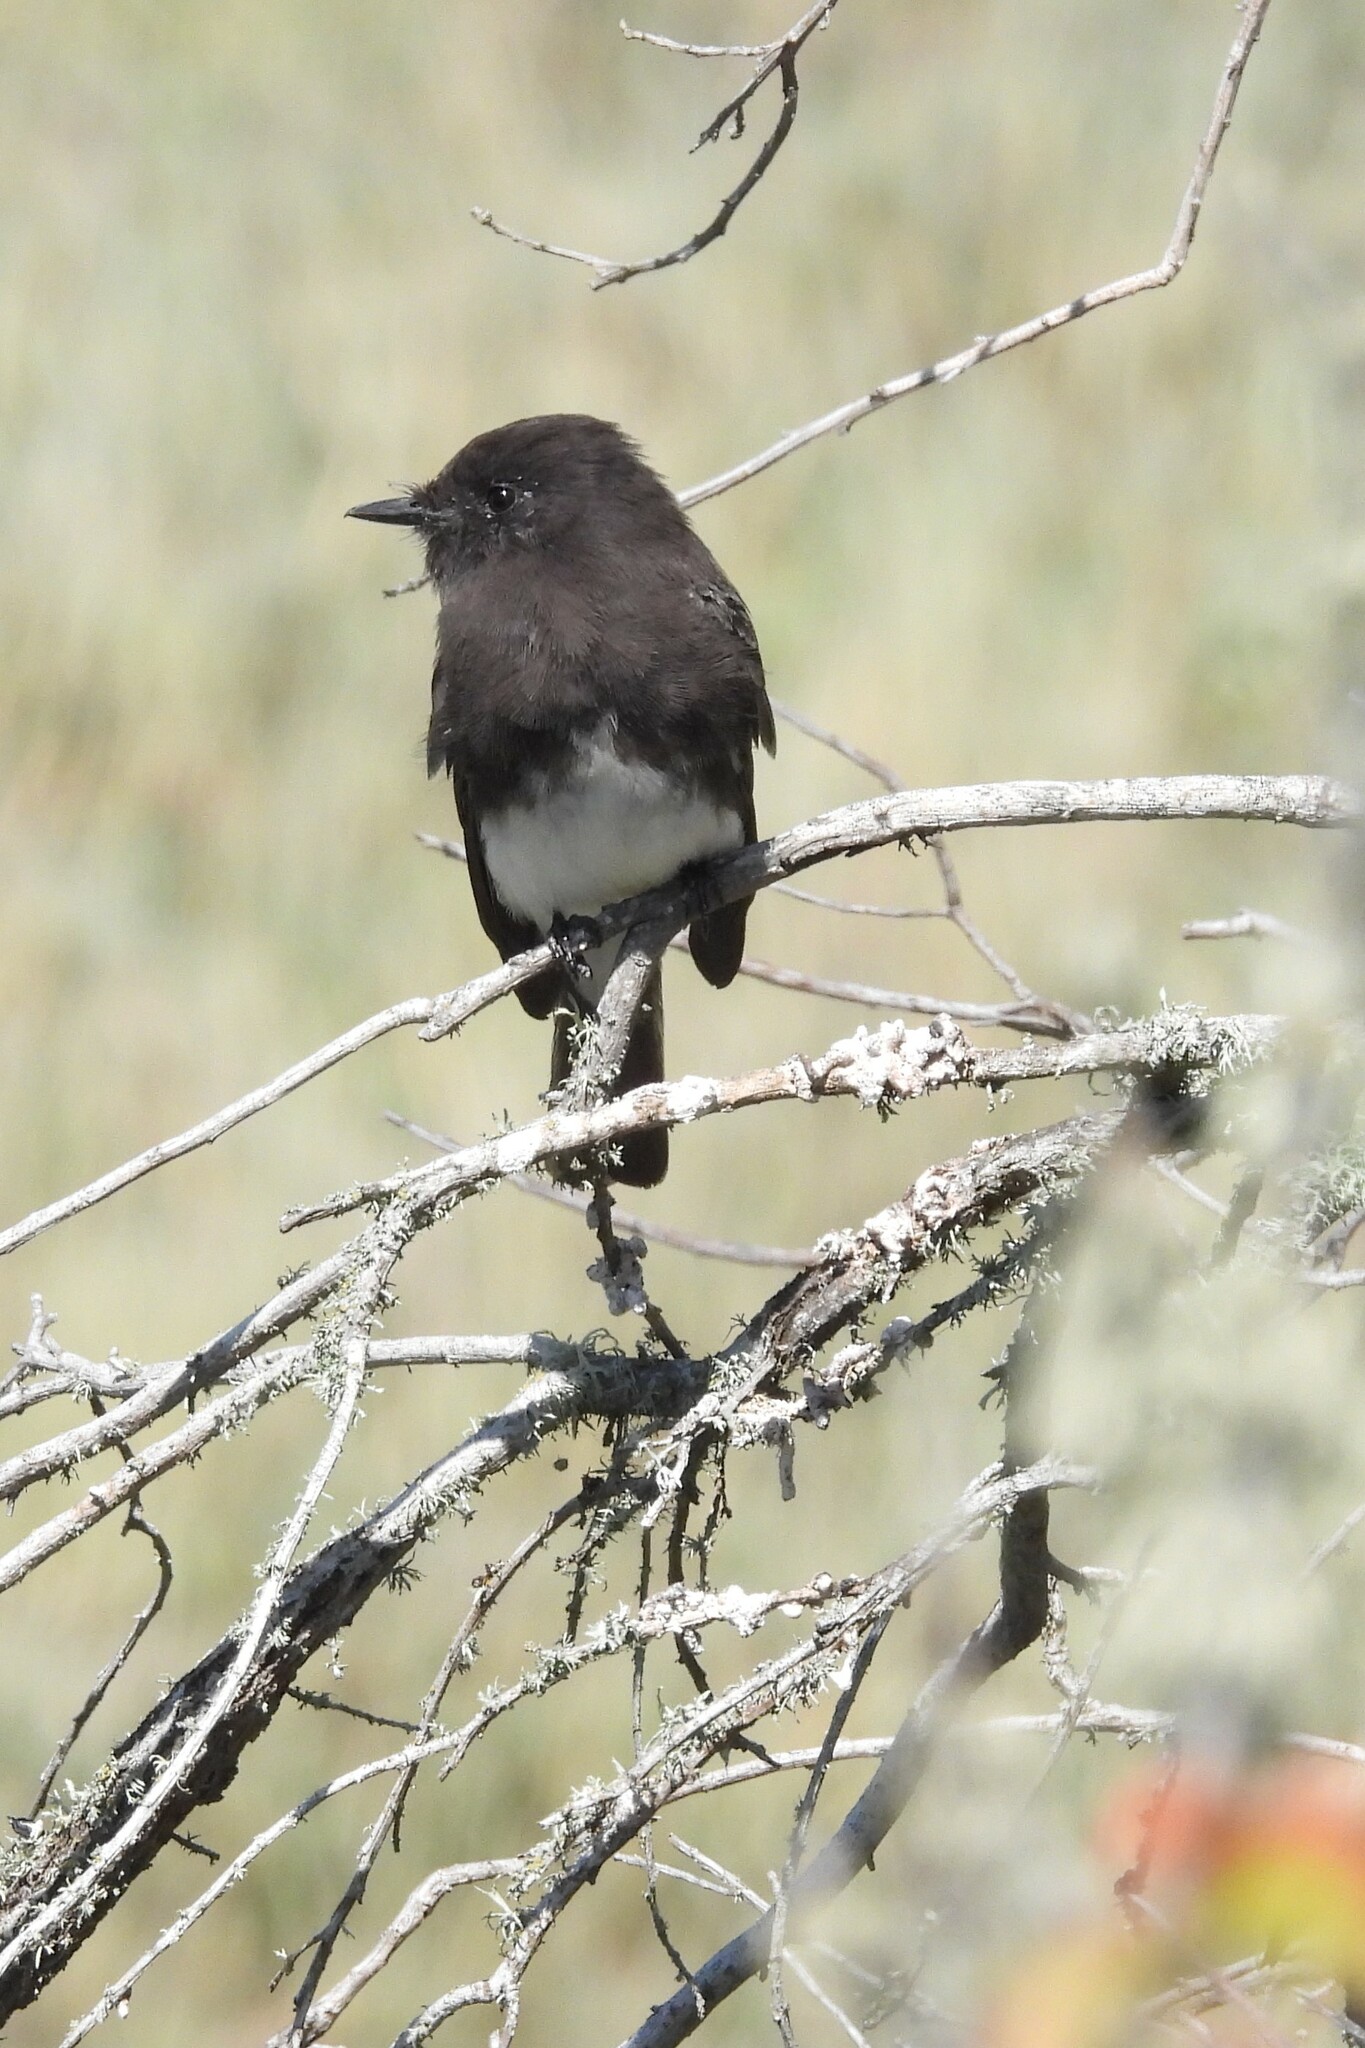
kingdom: Animalia
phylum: Chordata
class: Aves
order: Passeriformes
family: Tyrannidae
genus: Sayornis
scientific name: Sayornis nigricans
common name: Black phoebe
